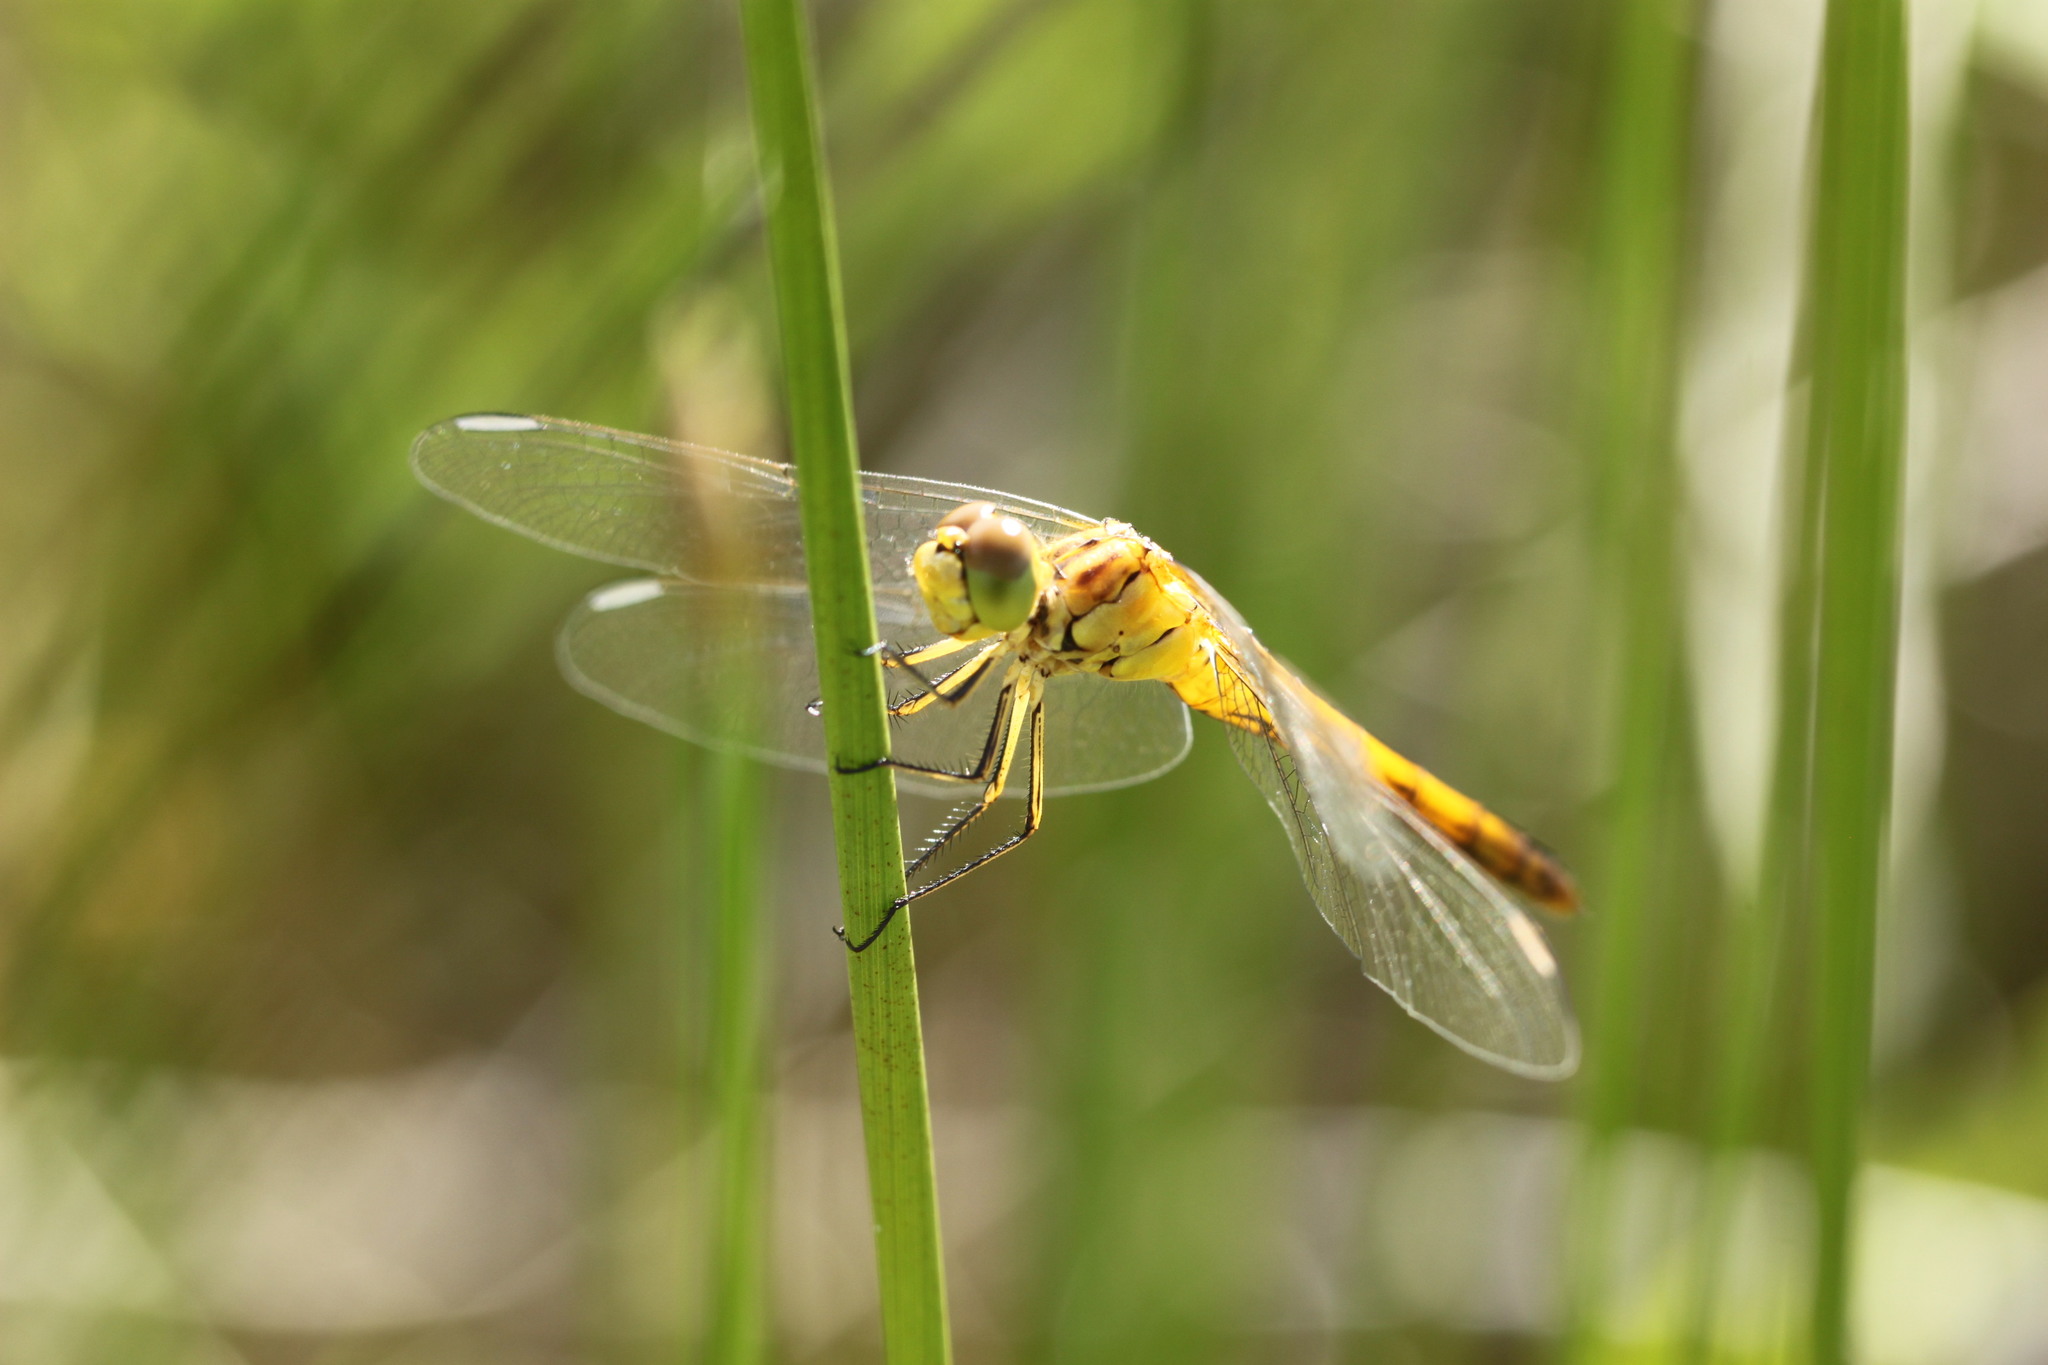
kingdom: Animalia
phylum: Arthropoda
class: Insecta
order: Odonata
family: Libellulidae
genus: Sympetrum
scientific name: Sympetrum meridionale
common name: Southern darter
